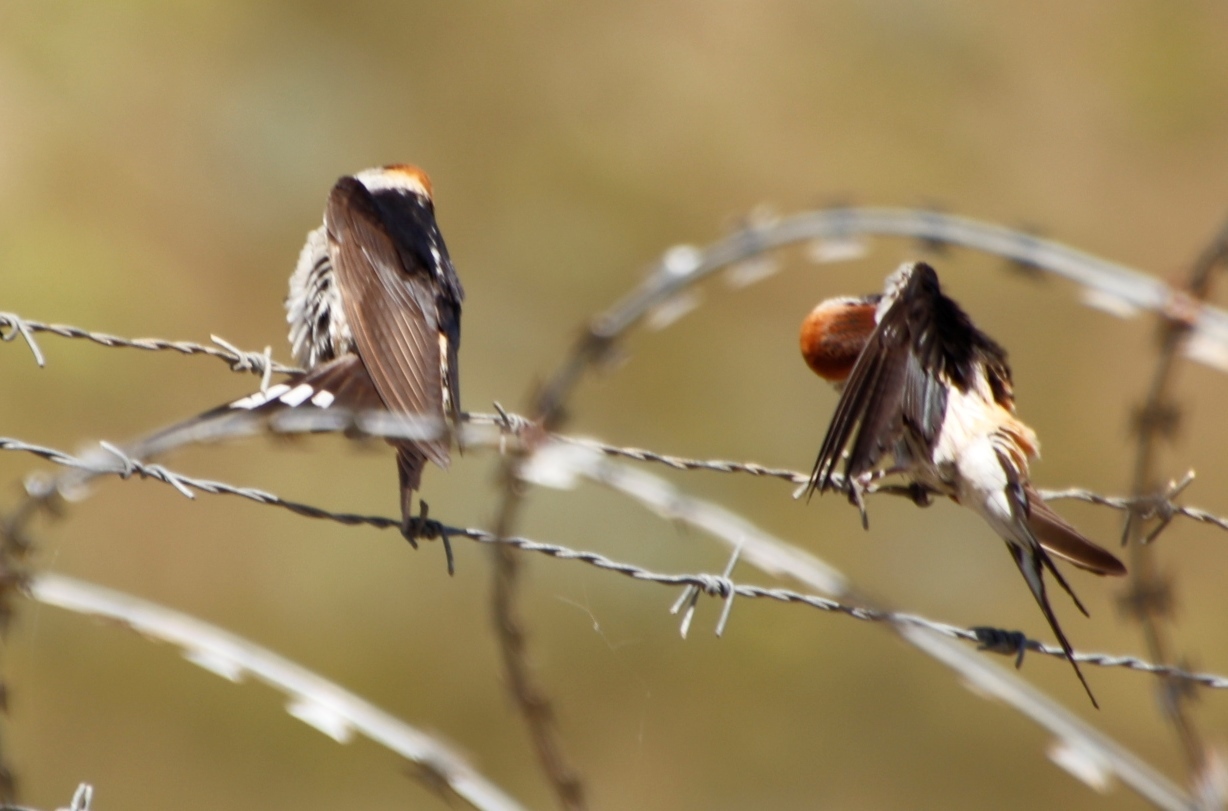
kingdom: Animalia
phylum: Chordata
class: Aves
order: Passeriformes
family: Hirundinidae
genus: Cecropis
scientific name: Cecropis cucullata
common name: Greater striped-swallow
